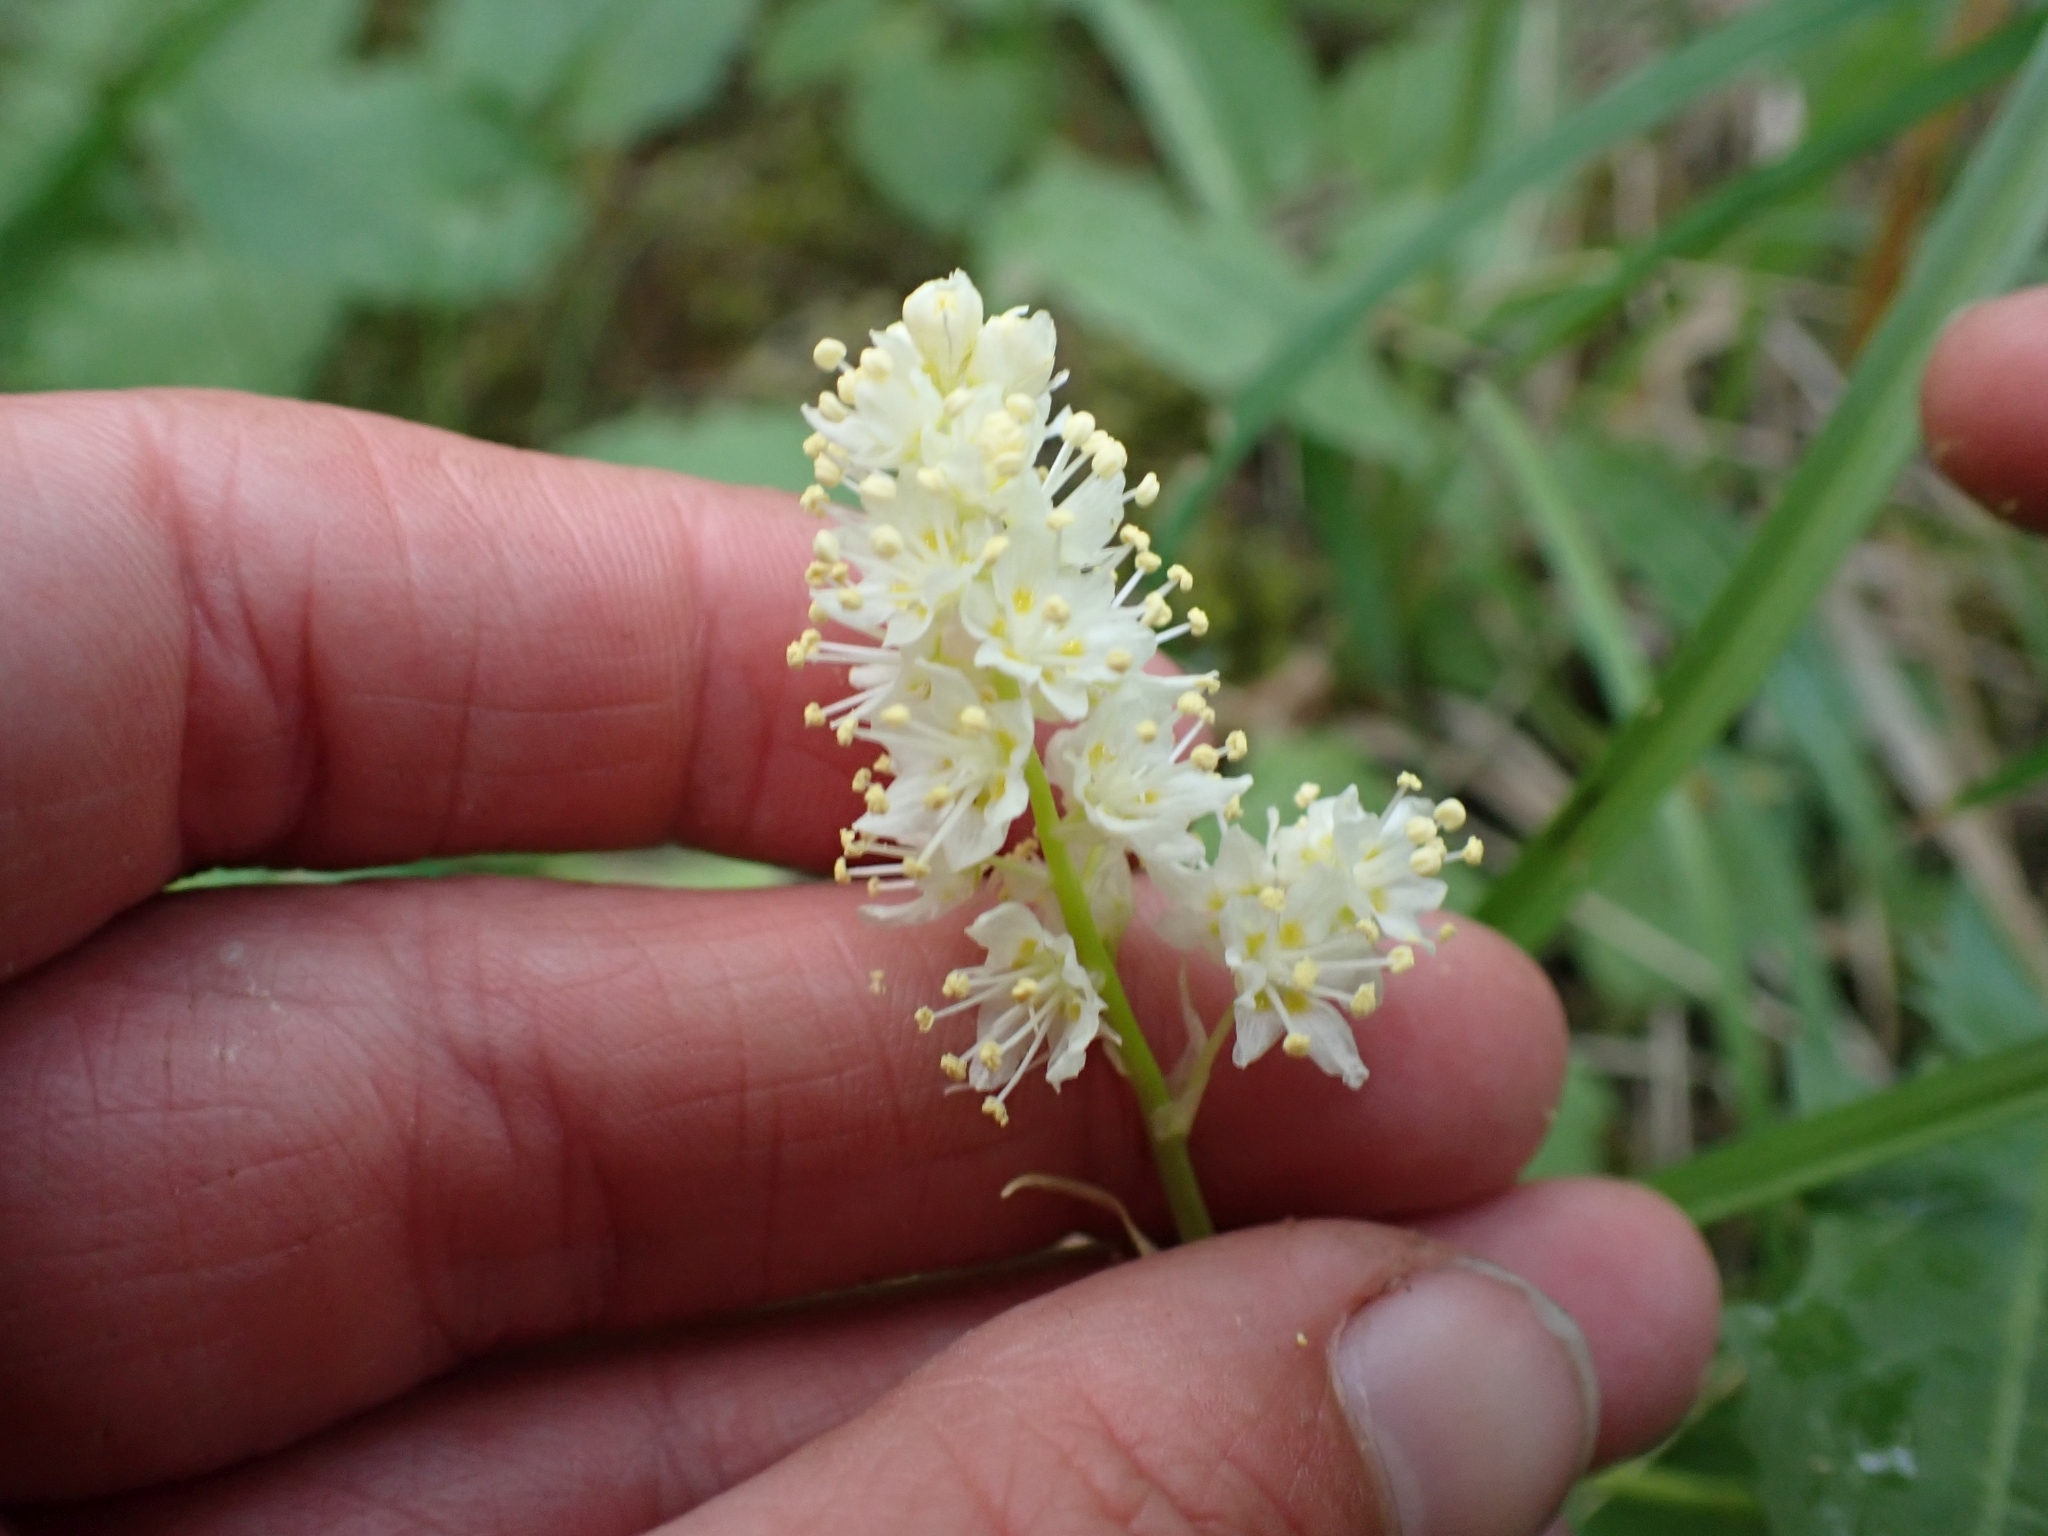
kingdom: Plantae
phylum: Tracheophyta
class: Liliopsida
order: Liliales
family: Melanthiaceae
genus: Toxicoscordion
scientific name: Toxicoscordion venenosum
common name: Meadow death camas
